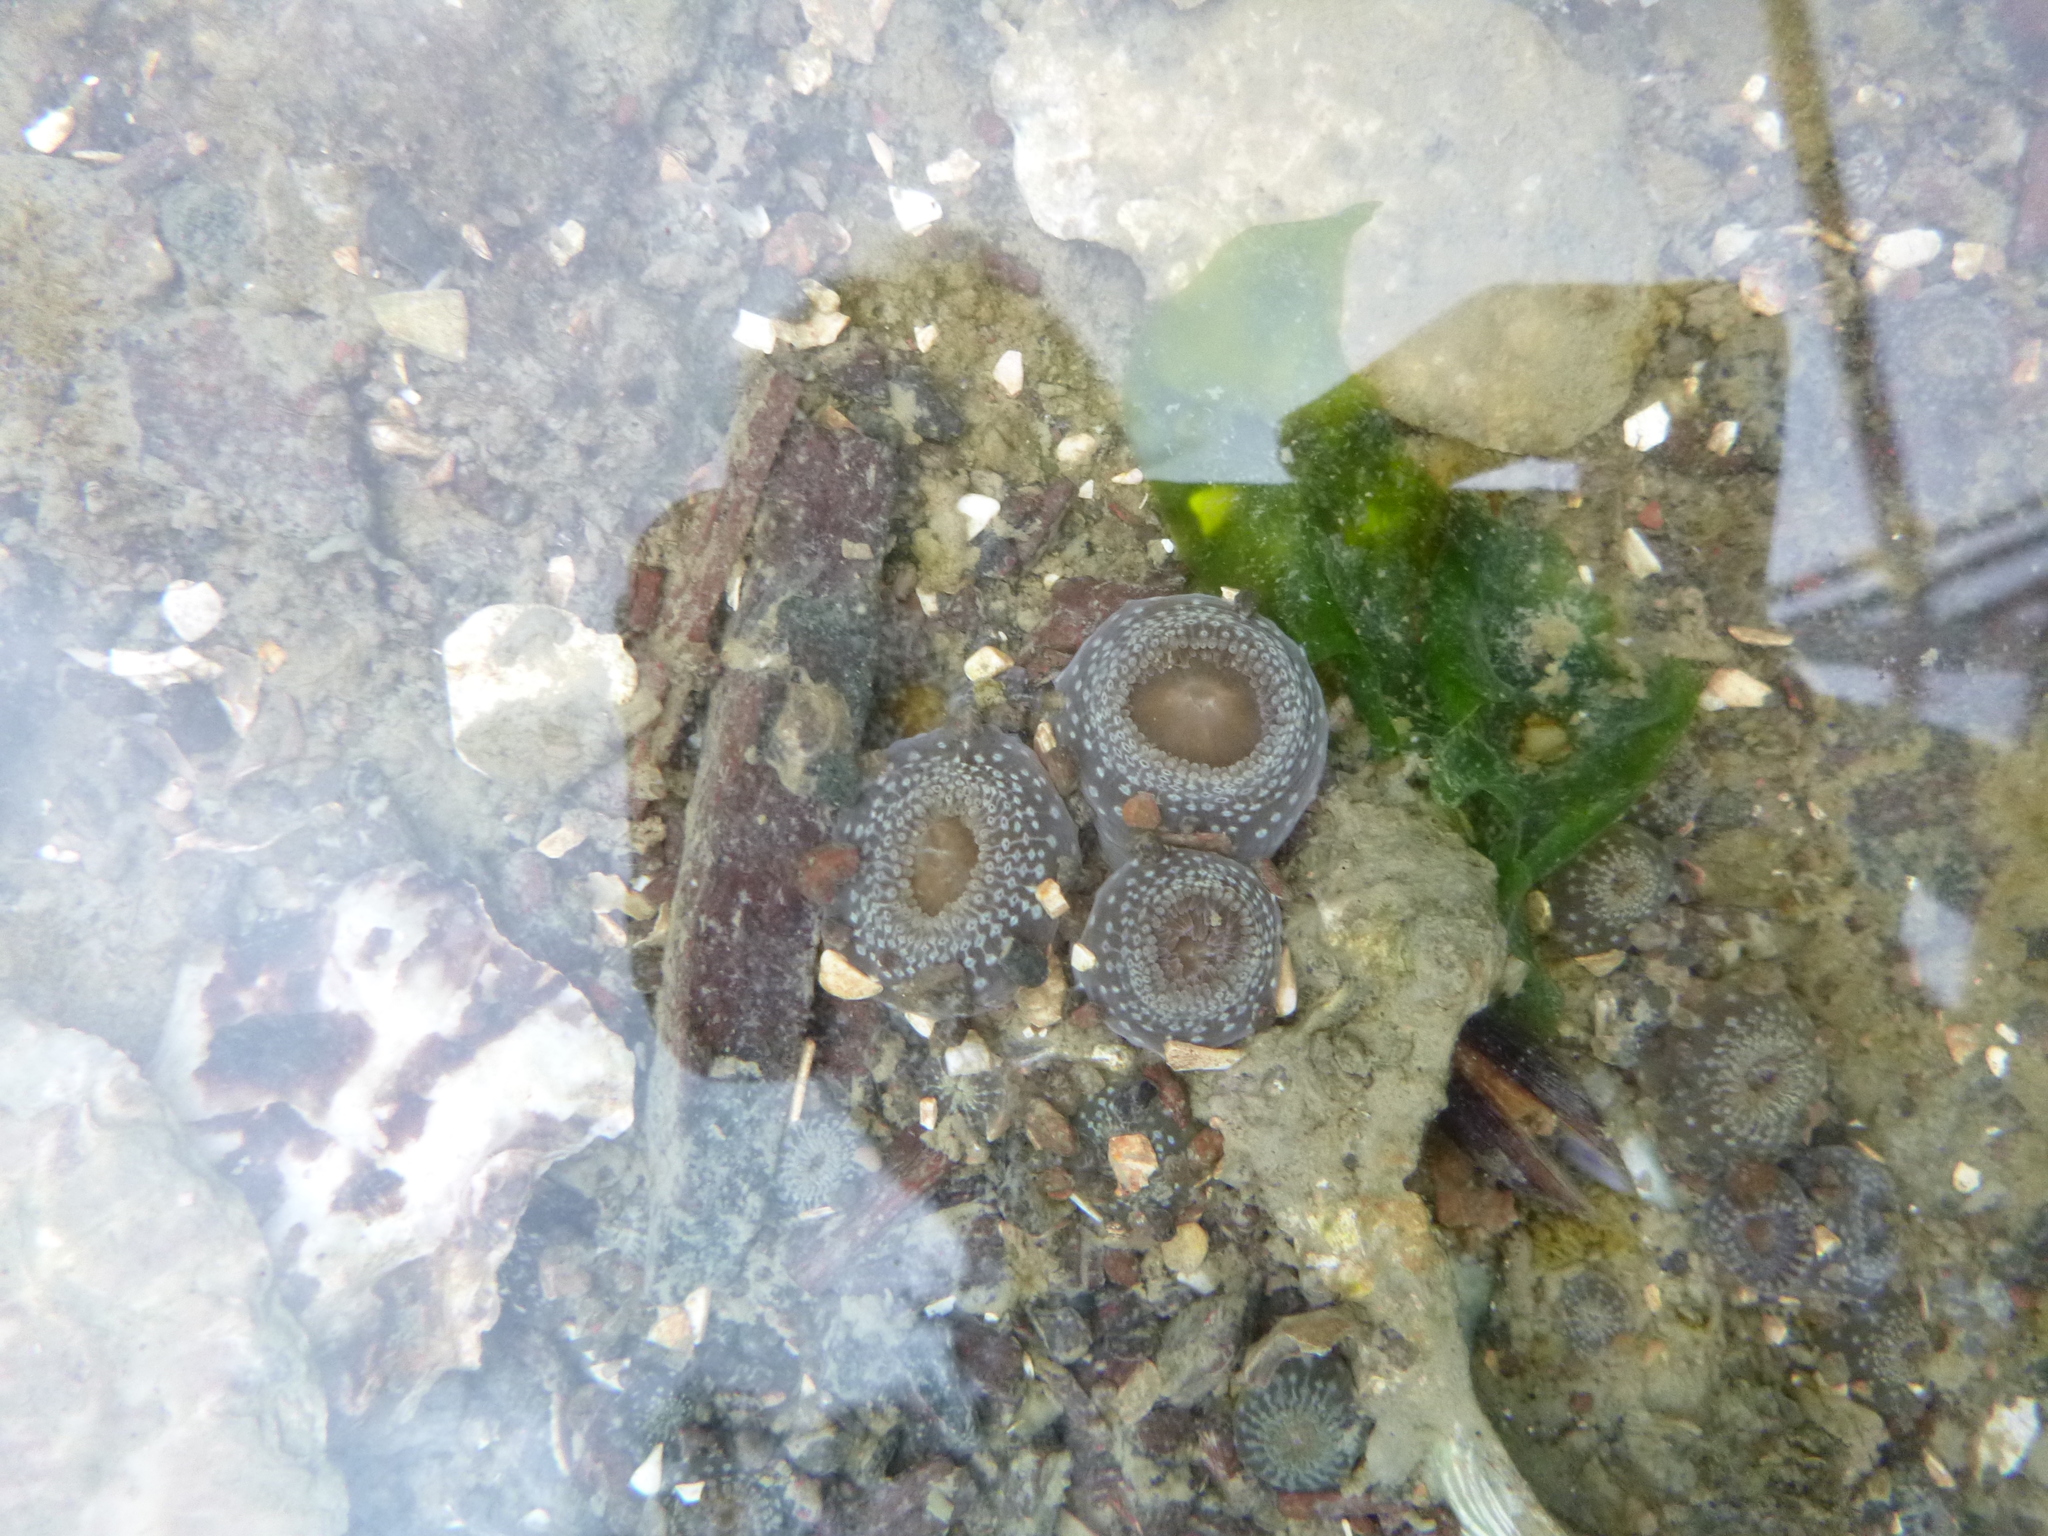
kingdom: Animalia
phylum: Cnidaria
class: Anthozoa
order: Actiniaria
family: Actiniidae
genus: Anthopleura
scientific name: Anthopleura hermaphroditica
